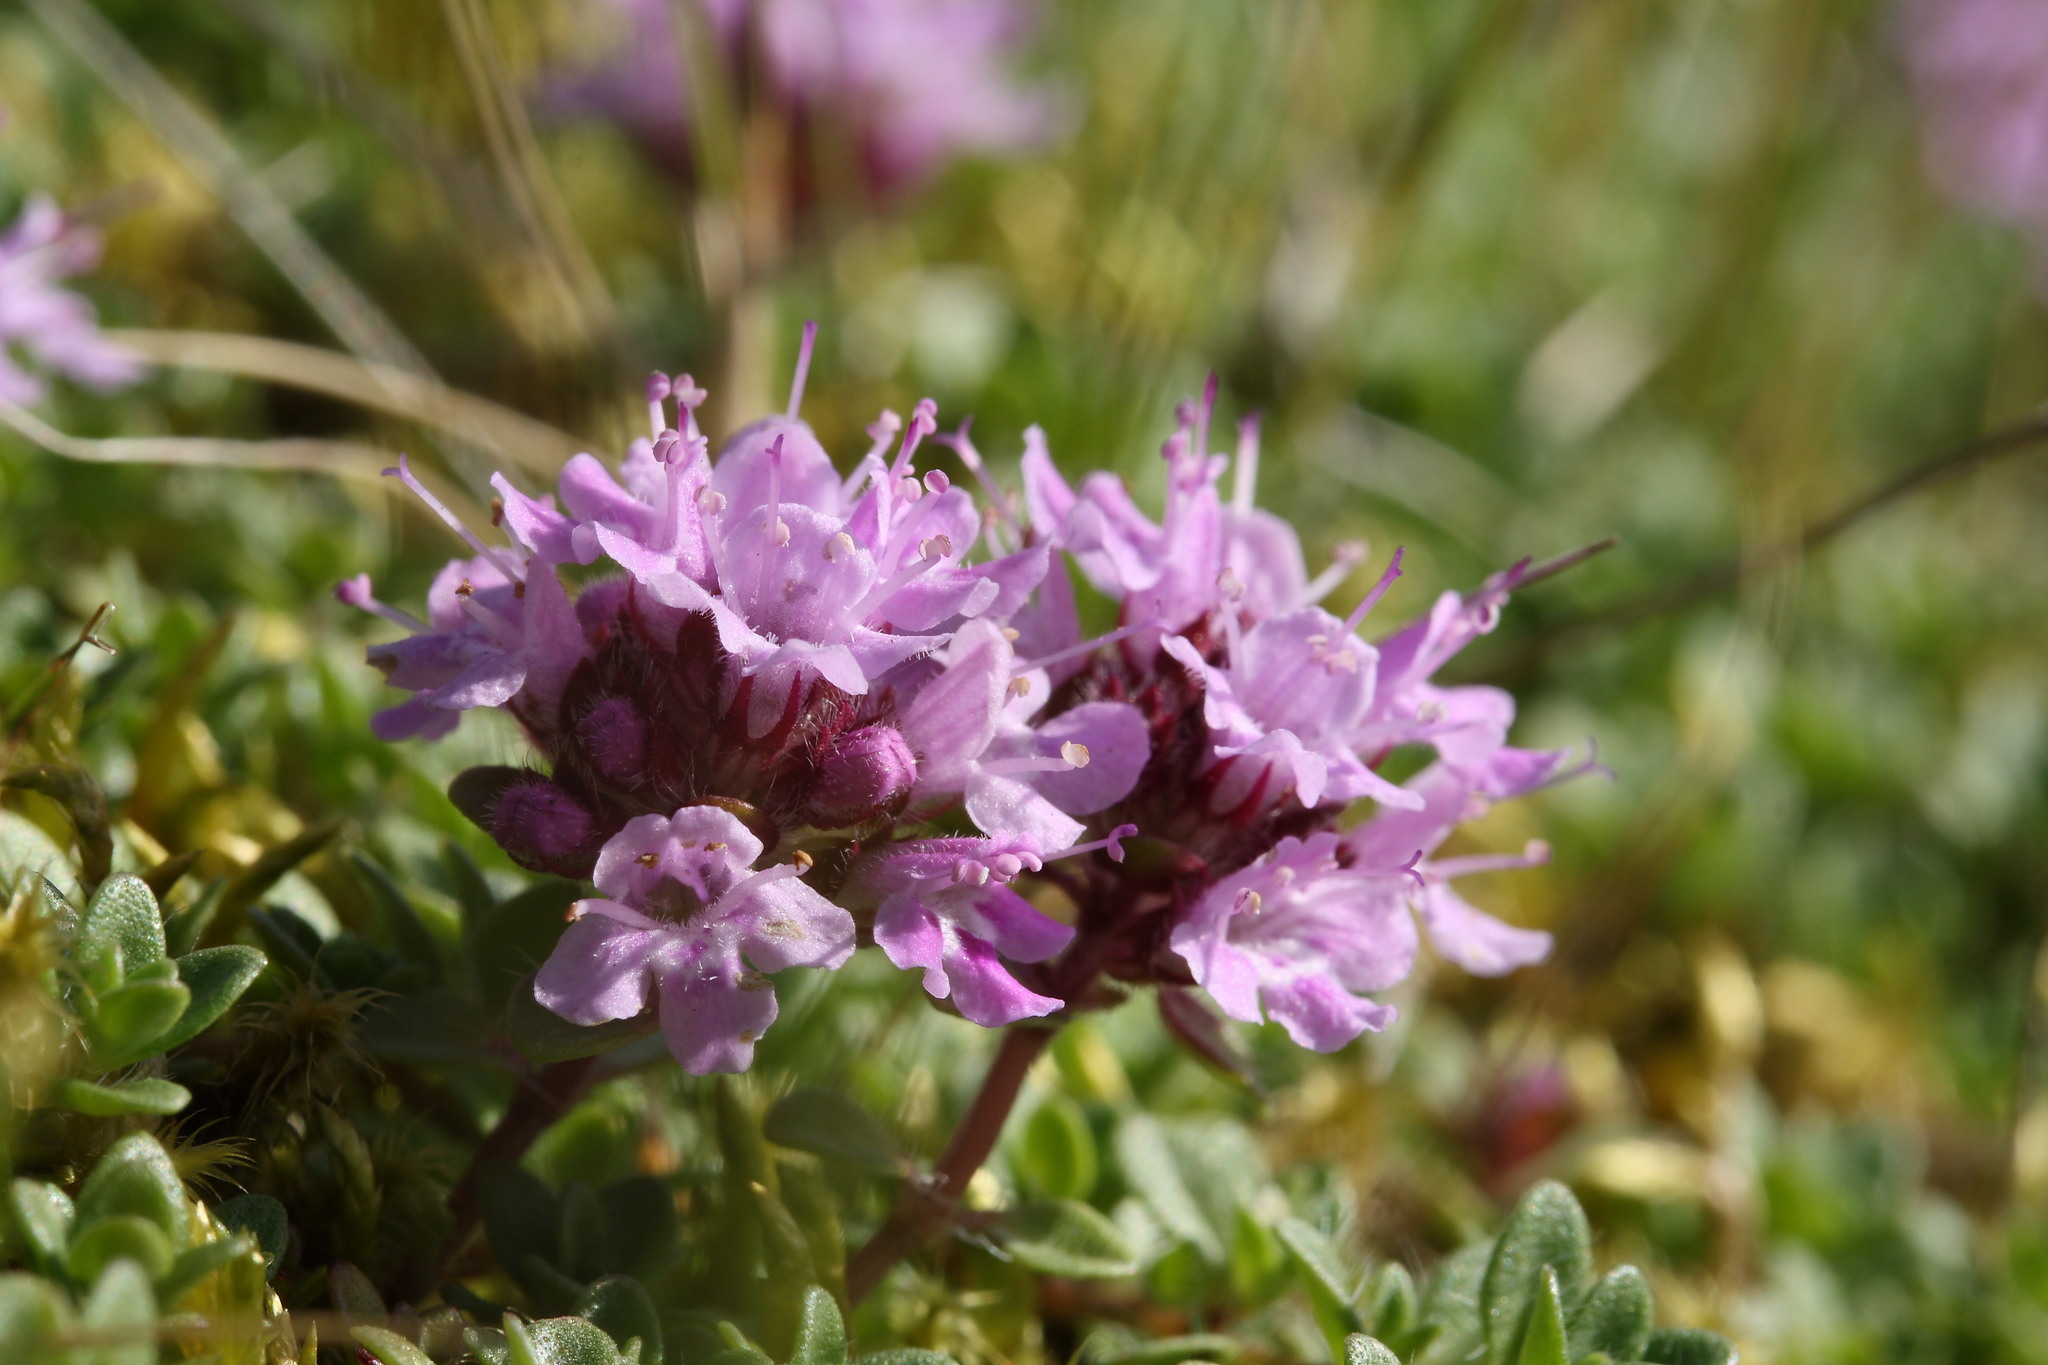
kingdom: Plantae
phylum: Tracheophyta
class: Magnoliopsida
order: Lamiales
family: Lamiaceae
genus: Thymus
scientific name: Thymus praecox
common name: Wild thyme
